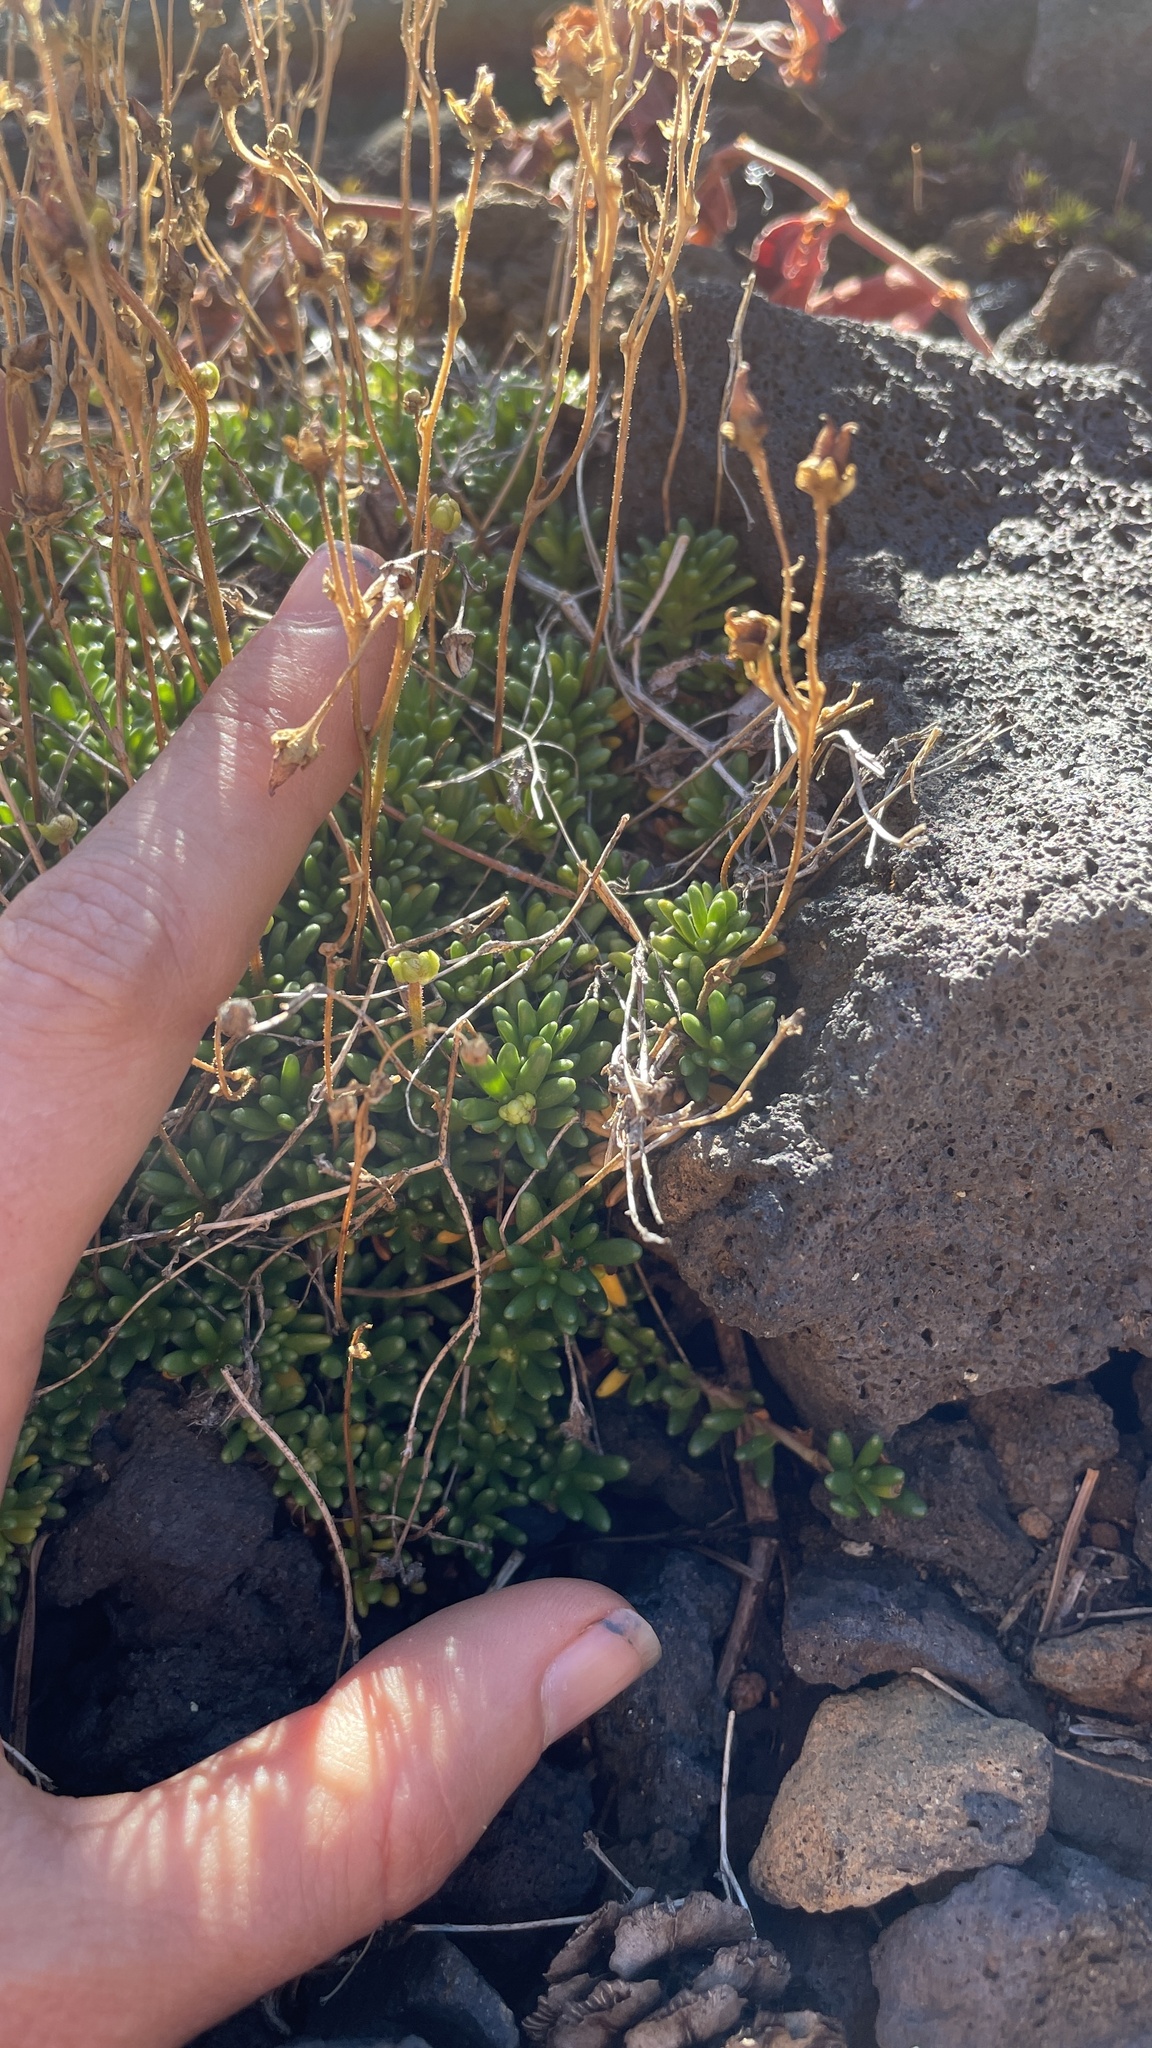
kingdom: Plantae
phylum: Tracheophyta
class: Magnoliopsida
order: Saxifragales
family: Saxifragaceae
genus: Micranthes
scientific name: Micranthes tolmiei
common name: Tolmie's saxifrage
